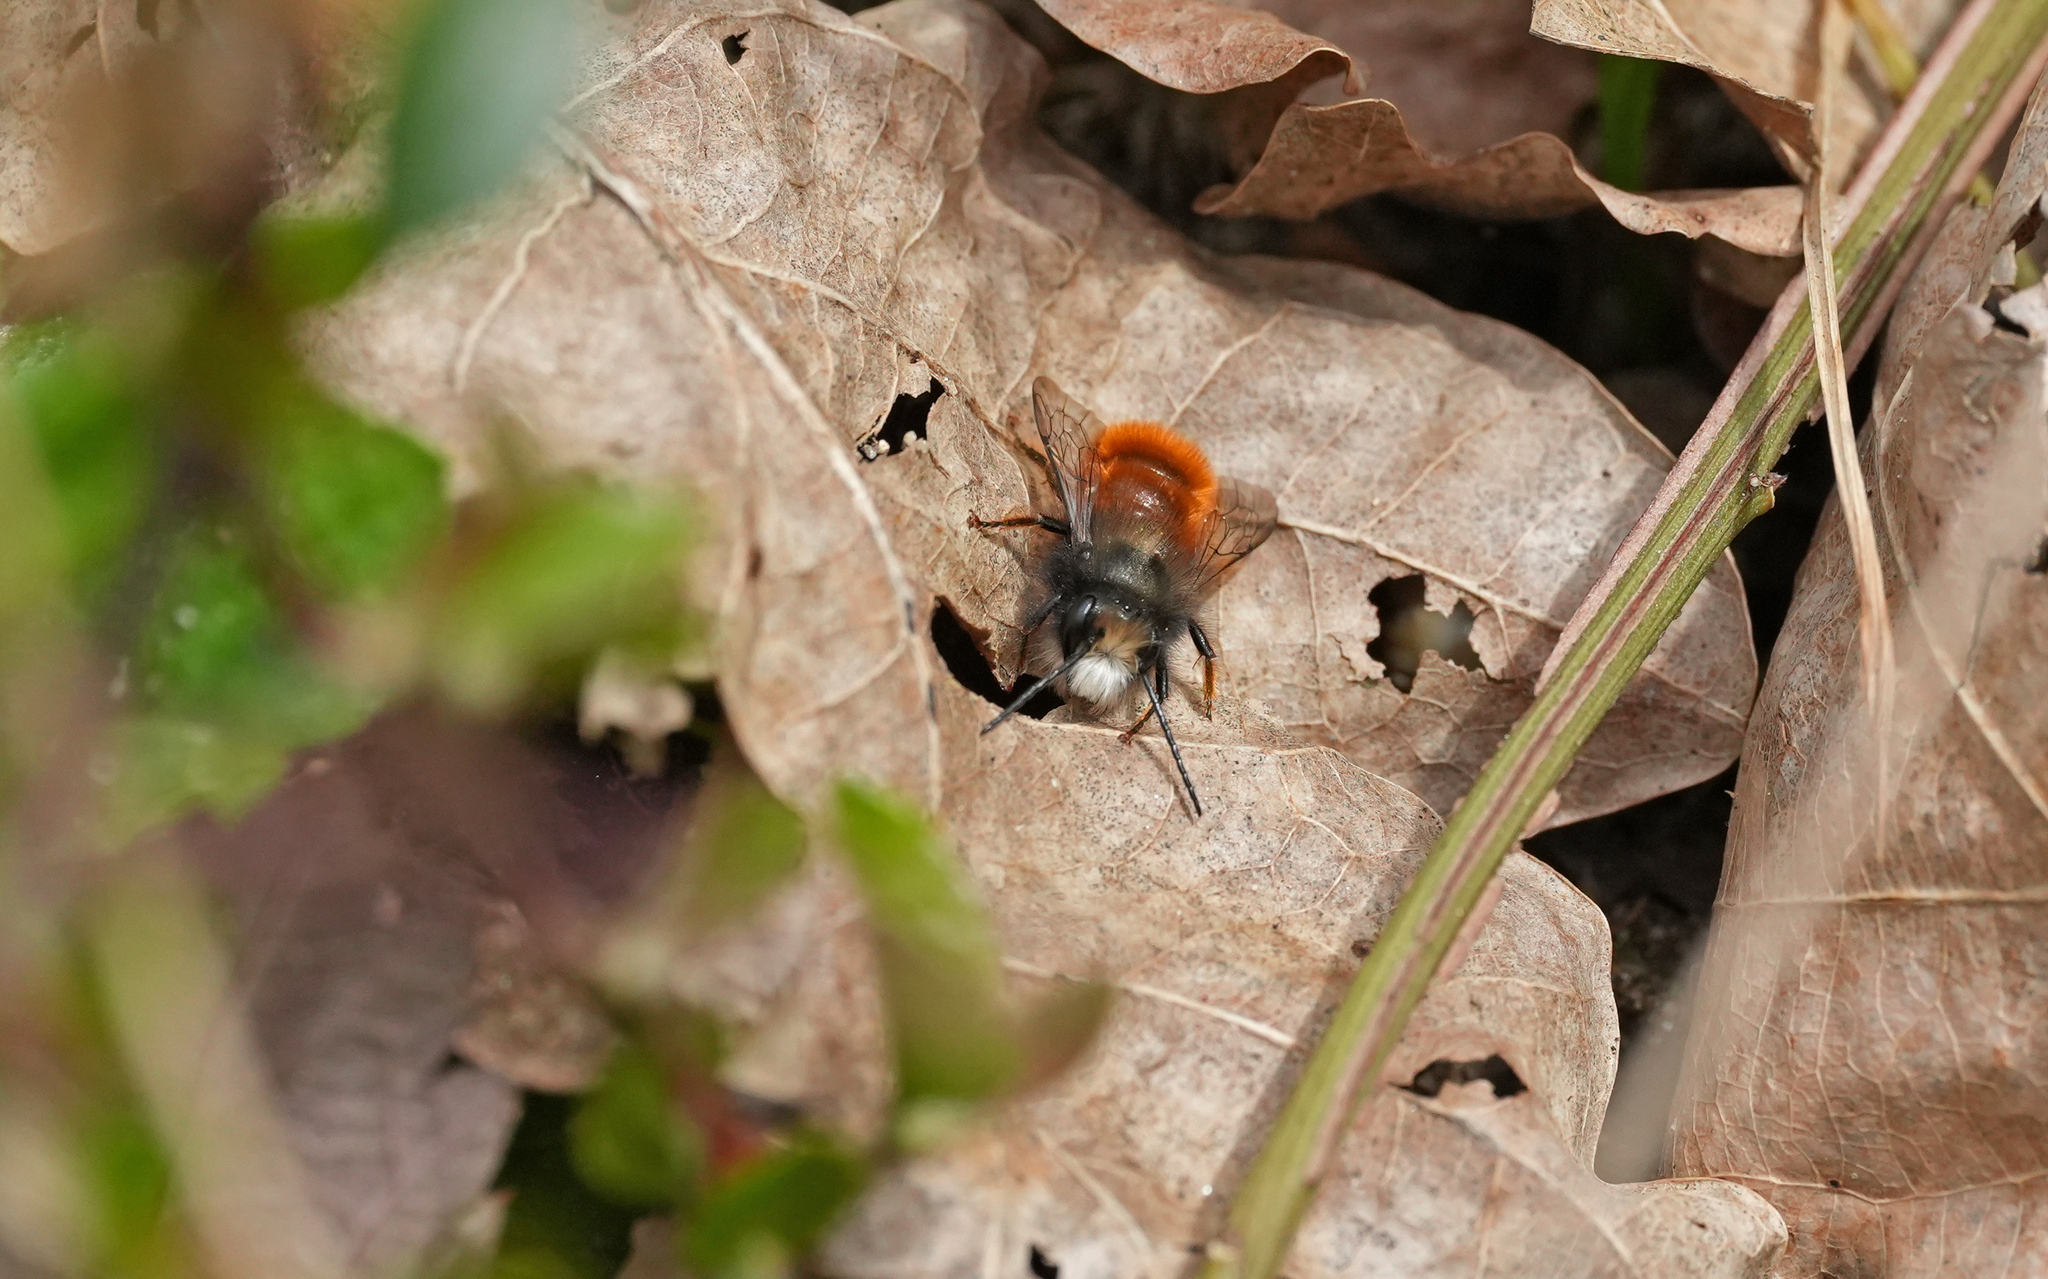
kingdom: Animalia
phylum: Arthropoda
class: Insecta
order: Hymenoptera
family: Megachilidae
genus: Osmia
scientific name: Osmia cornuta
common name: Mason bee
